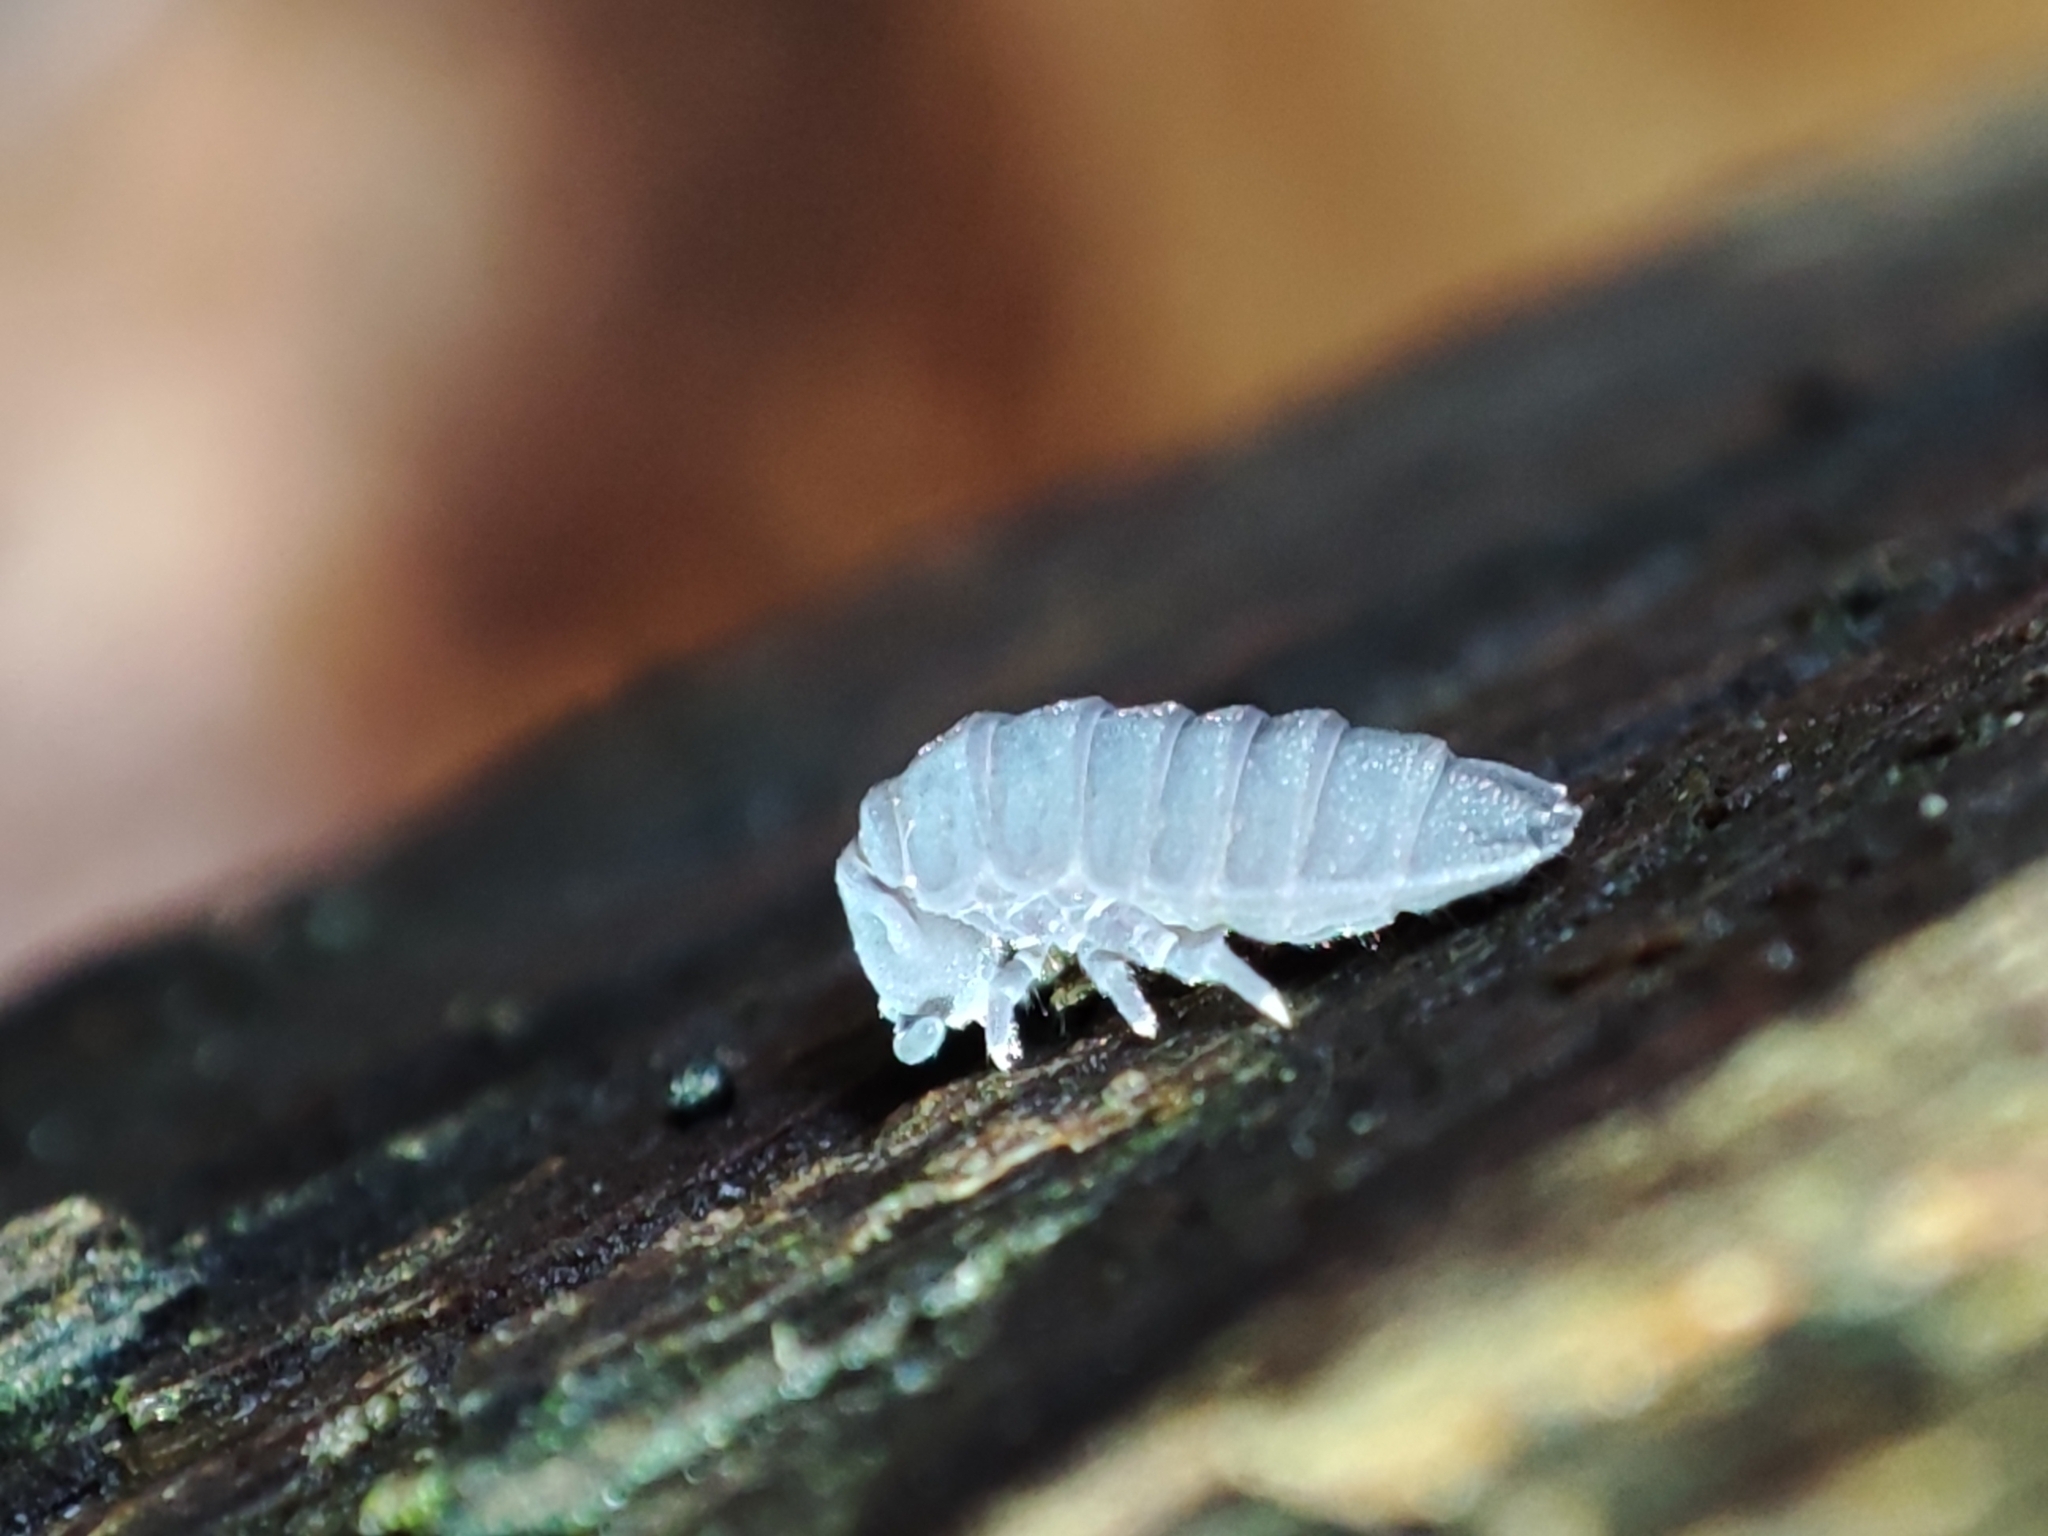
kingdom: Animalia
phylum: Arthropoda
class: Collembola
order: Poduromorpha
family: Onychiuridae
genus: Tetrodontophora
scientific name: Tetrodontophora bielanensis
